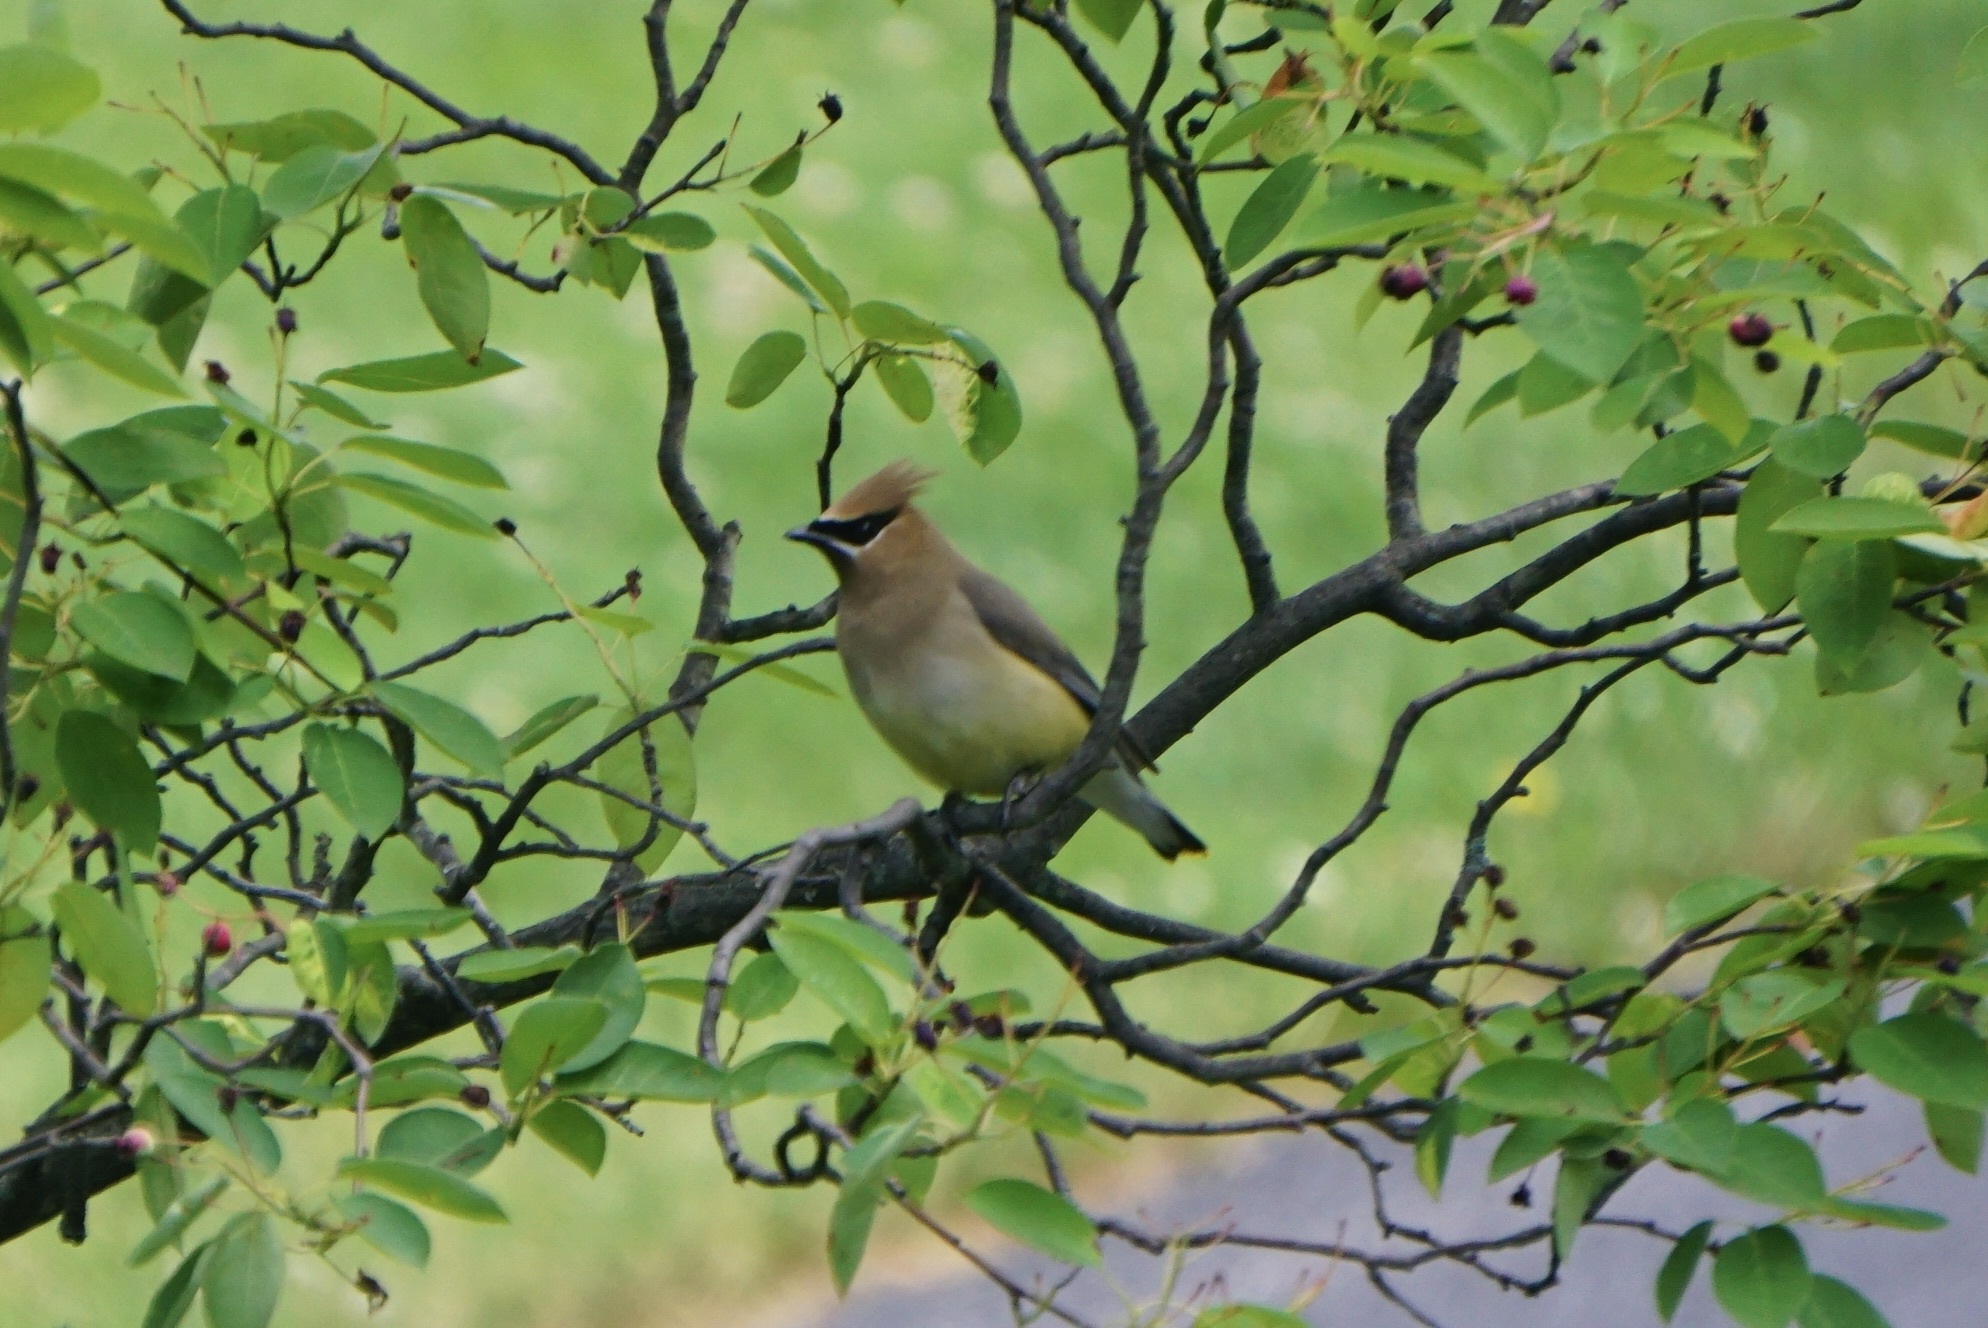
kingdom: Animalia
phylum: Chordata
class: Aves
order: Passeriformes
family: Bombycillidae
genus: Bombycilla
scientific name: Bombycilla cedrorum
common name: Cedar waxwing
